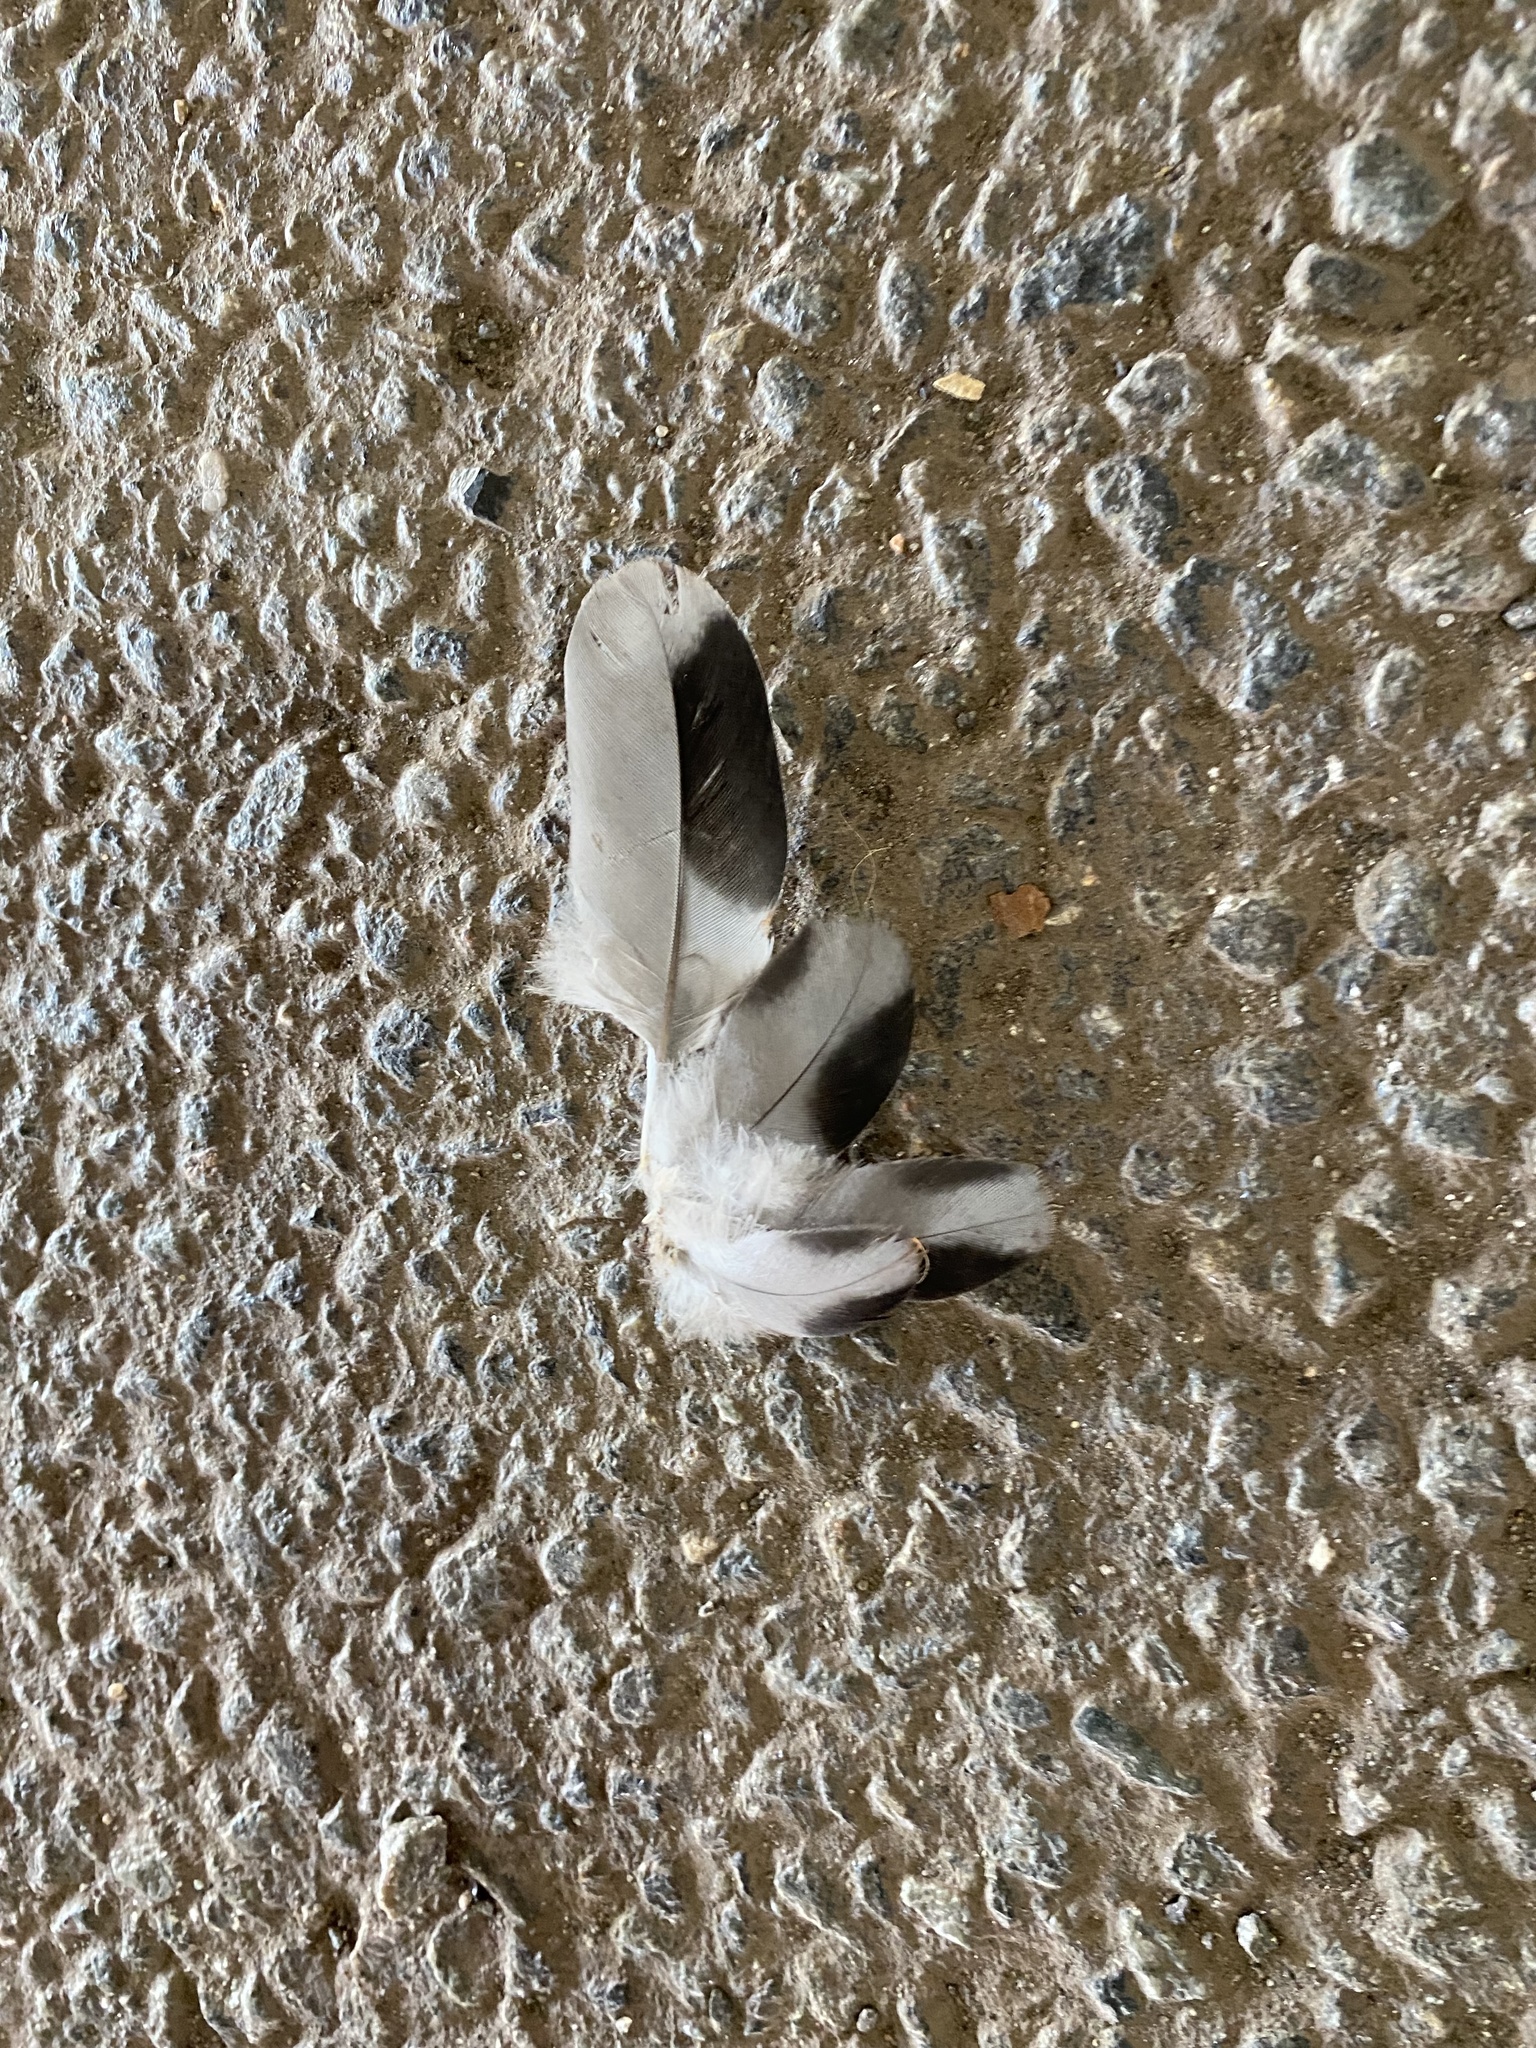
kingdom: Animalia
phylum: Chordata
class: Aves
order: Columbiformes
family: Columbidae
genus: Columba
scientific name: Columba livia
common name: Rock pigeon
